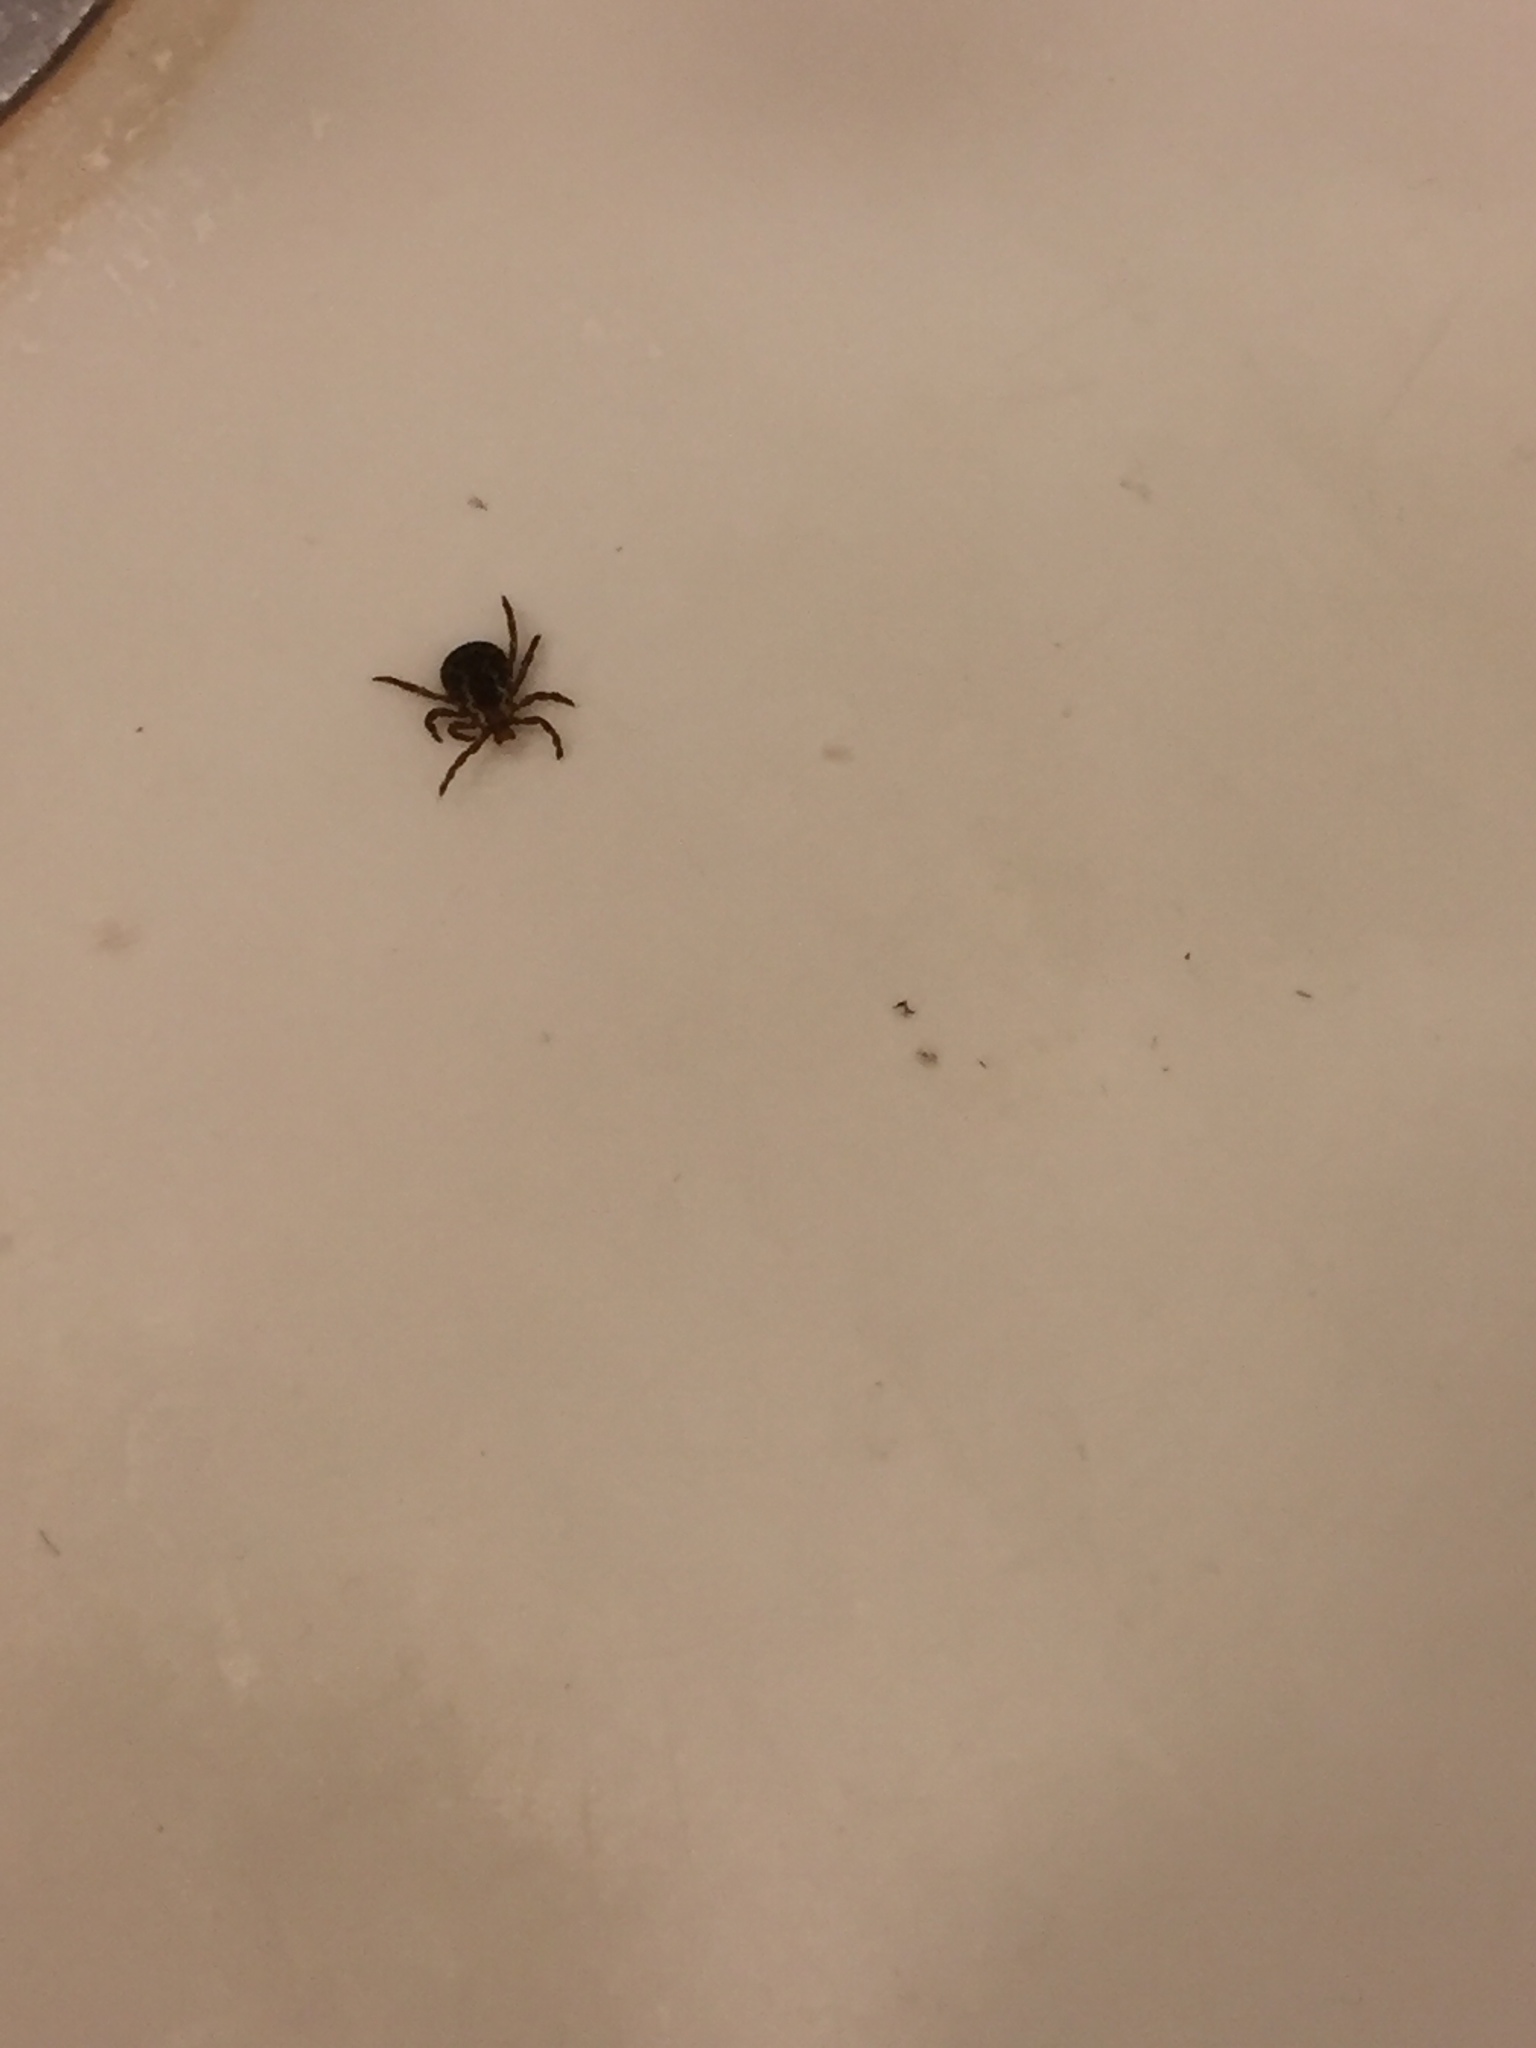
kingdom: Animalia
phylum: Arthropoda
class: Arachnida
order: Ixodida
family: Ixodidae
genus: Dermacentor
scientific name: Dermacentor variabilis
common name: American dog tick
